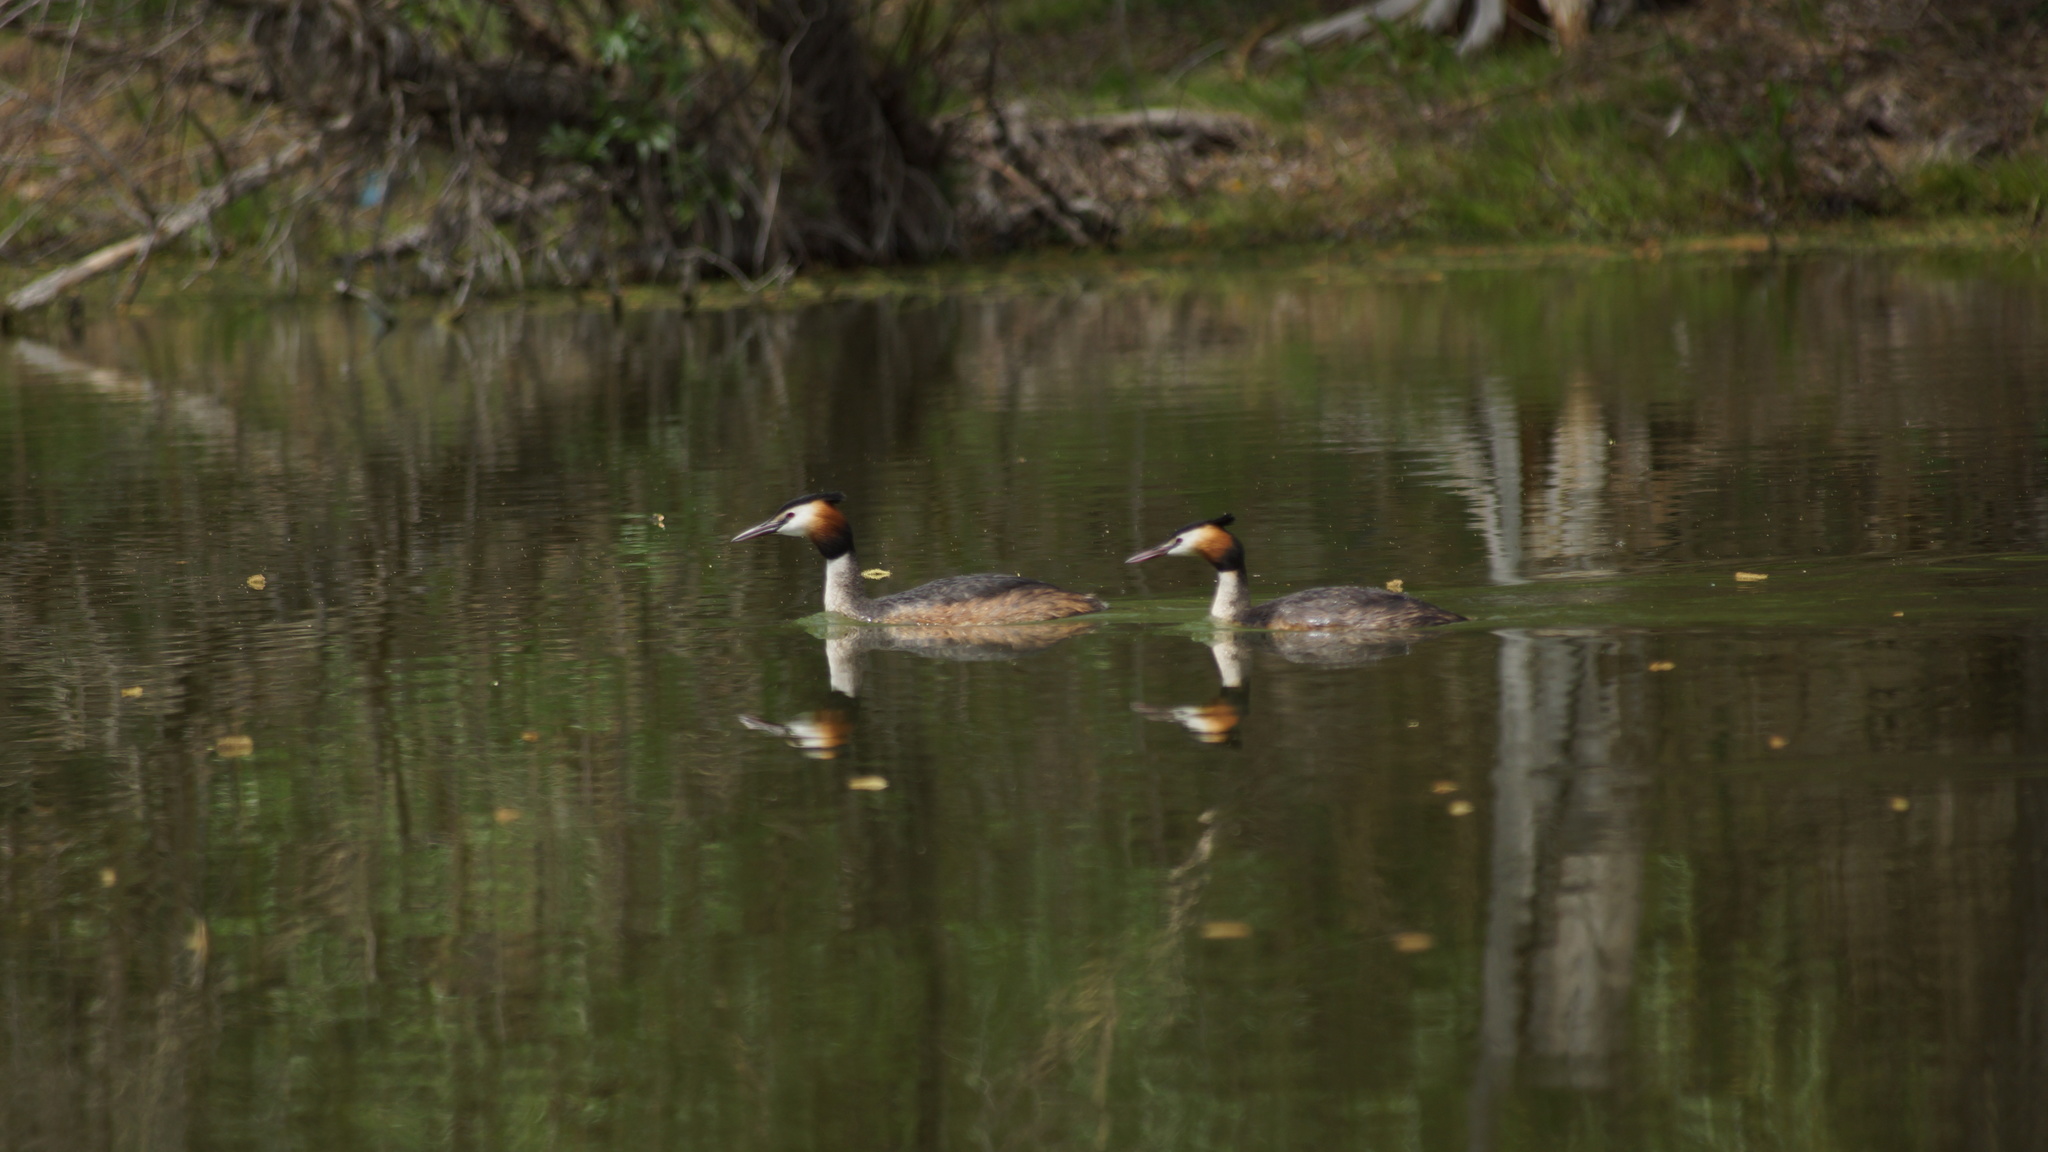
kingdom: Animalia
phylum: Chordata
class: Aves
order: Podicipediformes
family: Podicipedidae
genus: Podiceps
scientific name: Podiceps cristatus
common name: Great crested grebe
